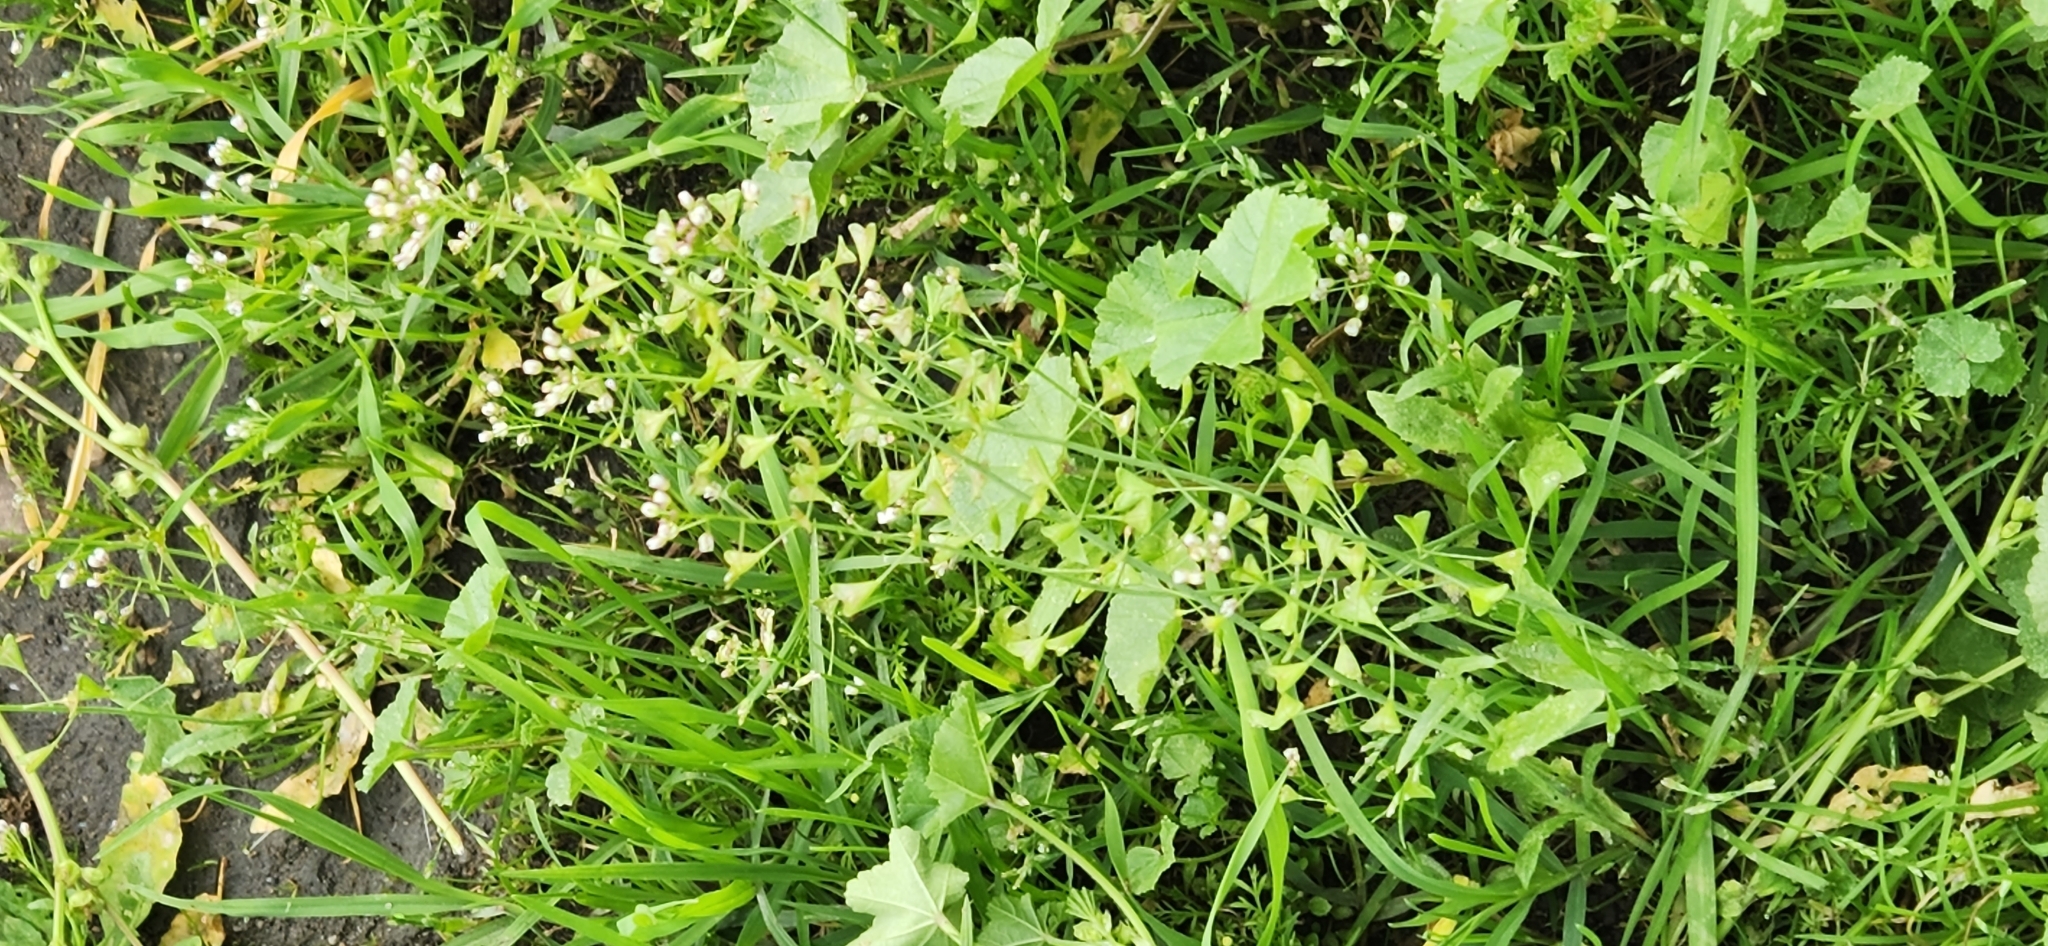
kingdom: Plantae
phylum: Tracheophyta
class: Magnoliopsida
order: Brassicales
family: Brassicaceae
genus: Capsella
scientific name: Capsella bursa-pastoris
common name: Shepherd's purse
